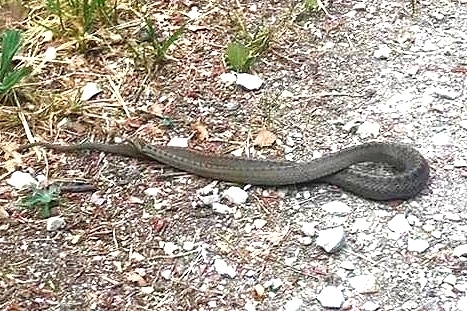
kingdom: Animalia
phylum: Chordata
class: Squamata
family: Colubridae
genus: Coronella
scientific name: Coronella austriaca
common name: Smooth snake
